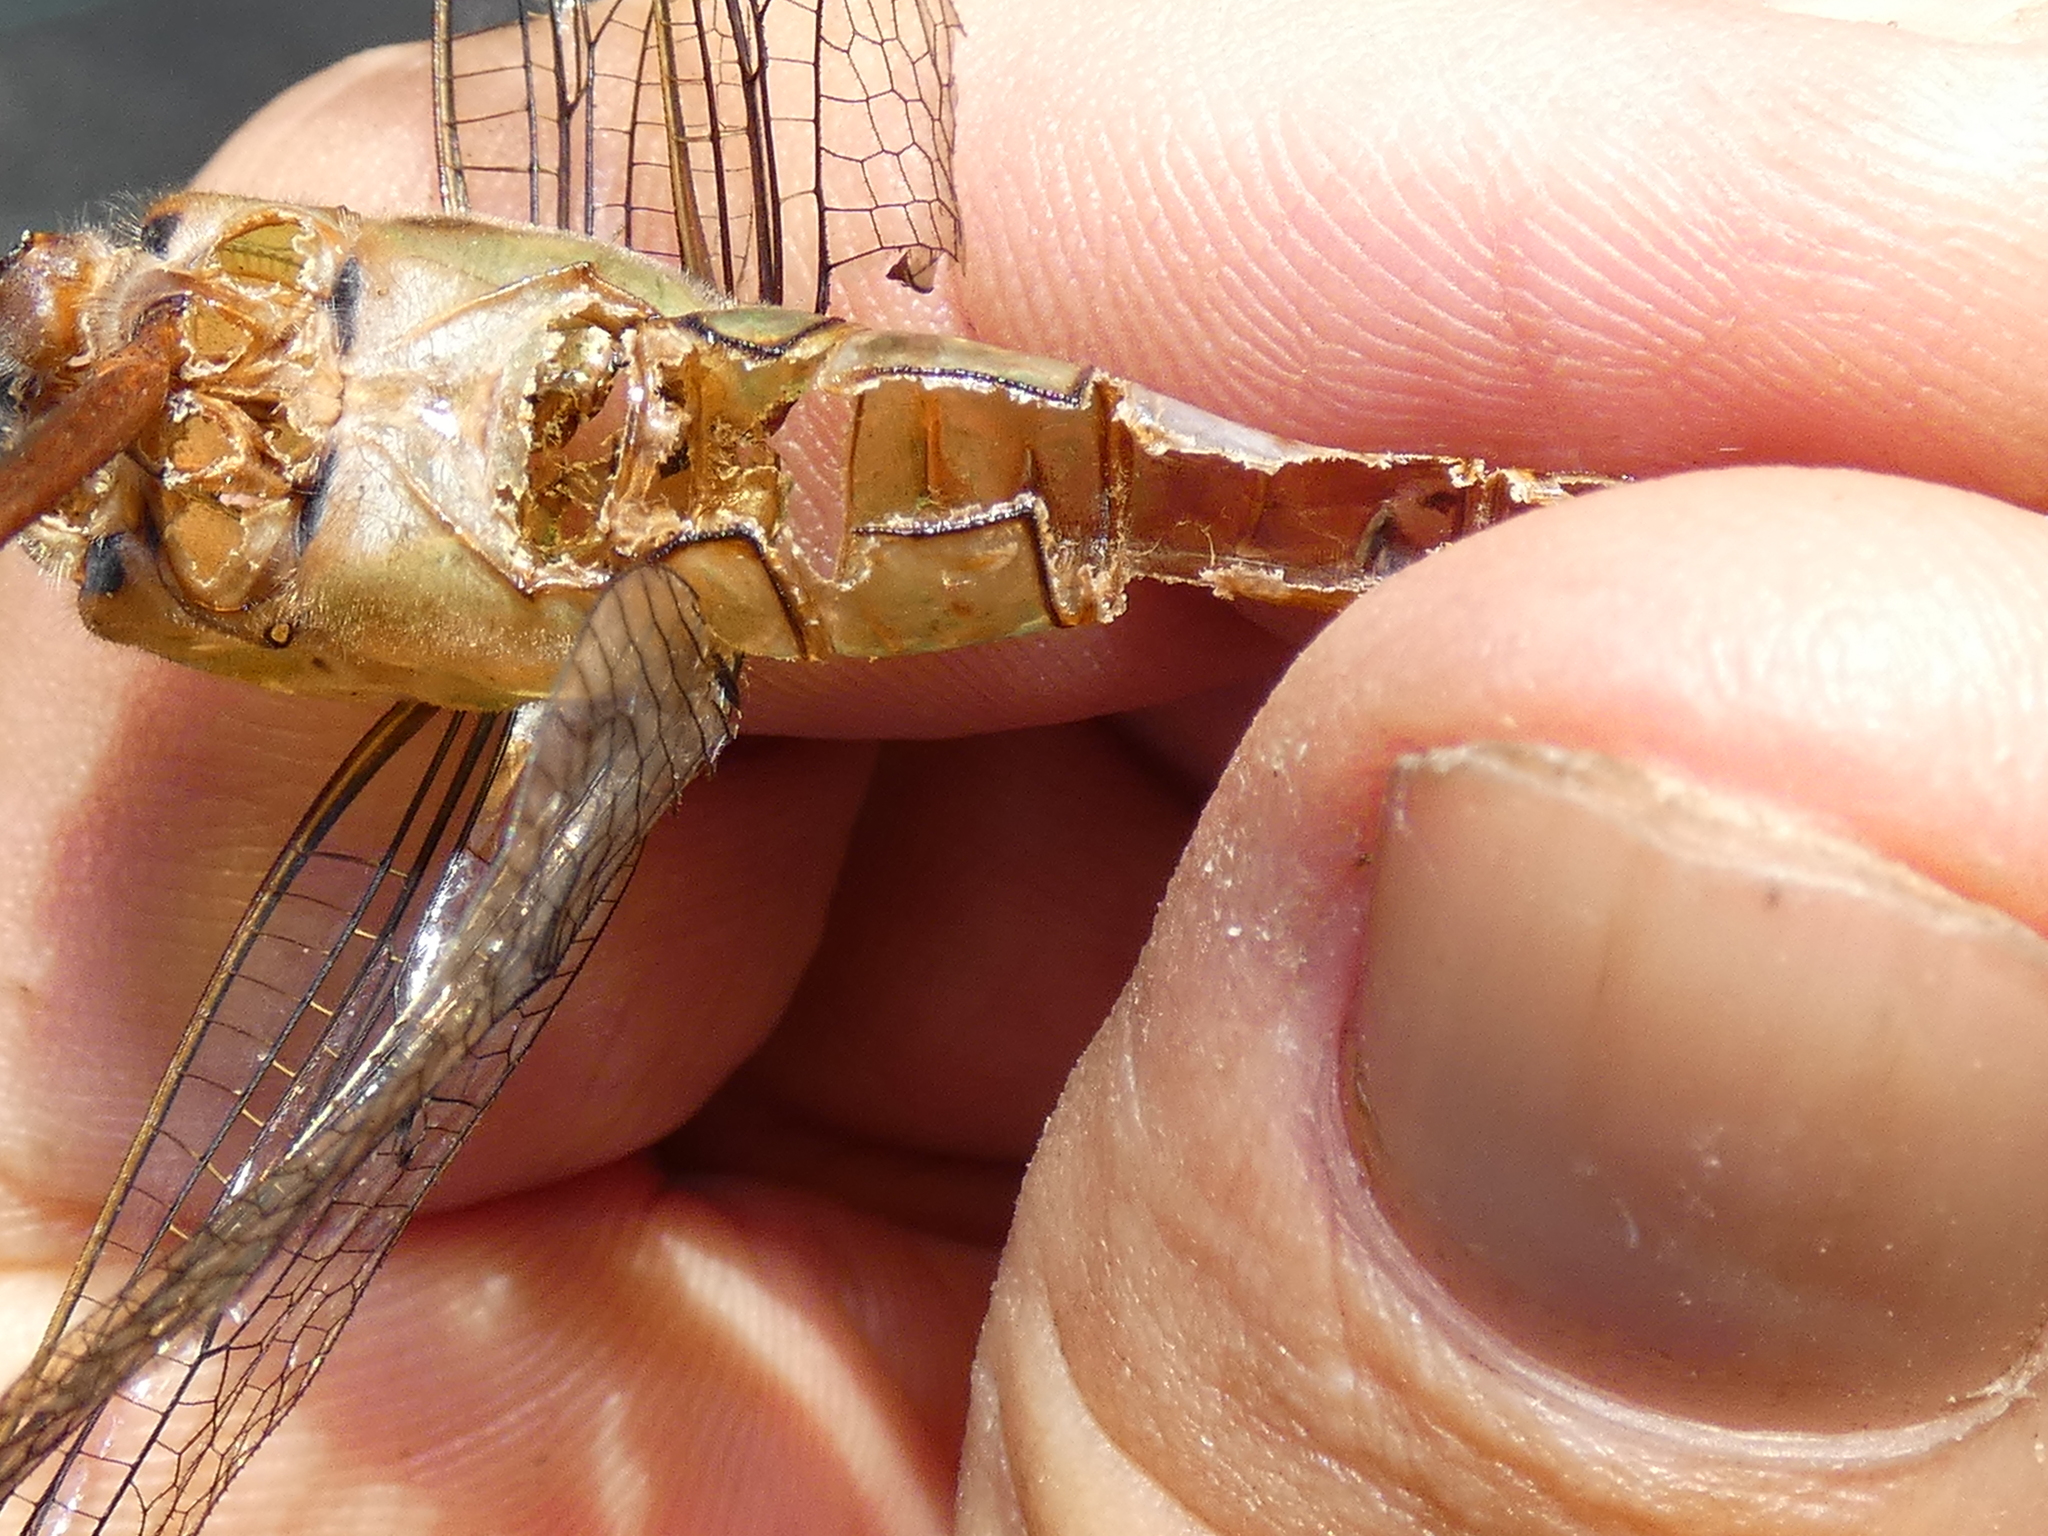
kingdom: Animalia
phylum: Arthropoda
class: Insecta
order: Odonata
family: Aeshnidae
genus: Anax
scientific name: Anax longipes
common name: Comet darner
